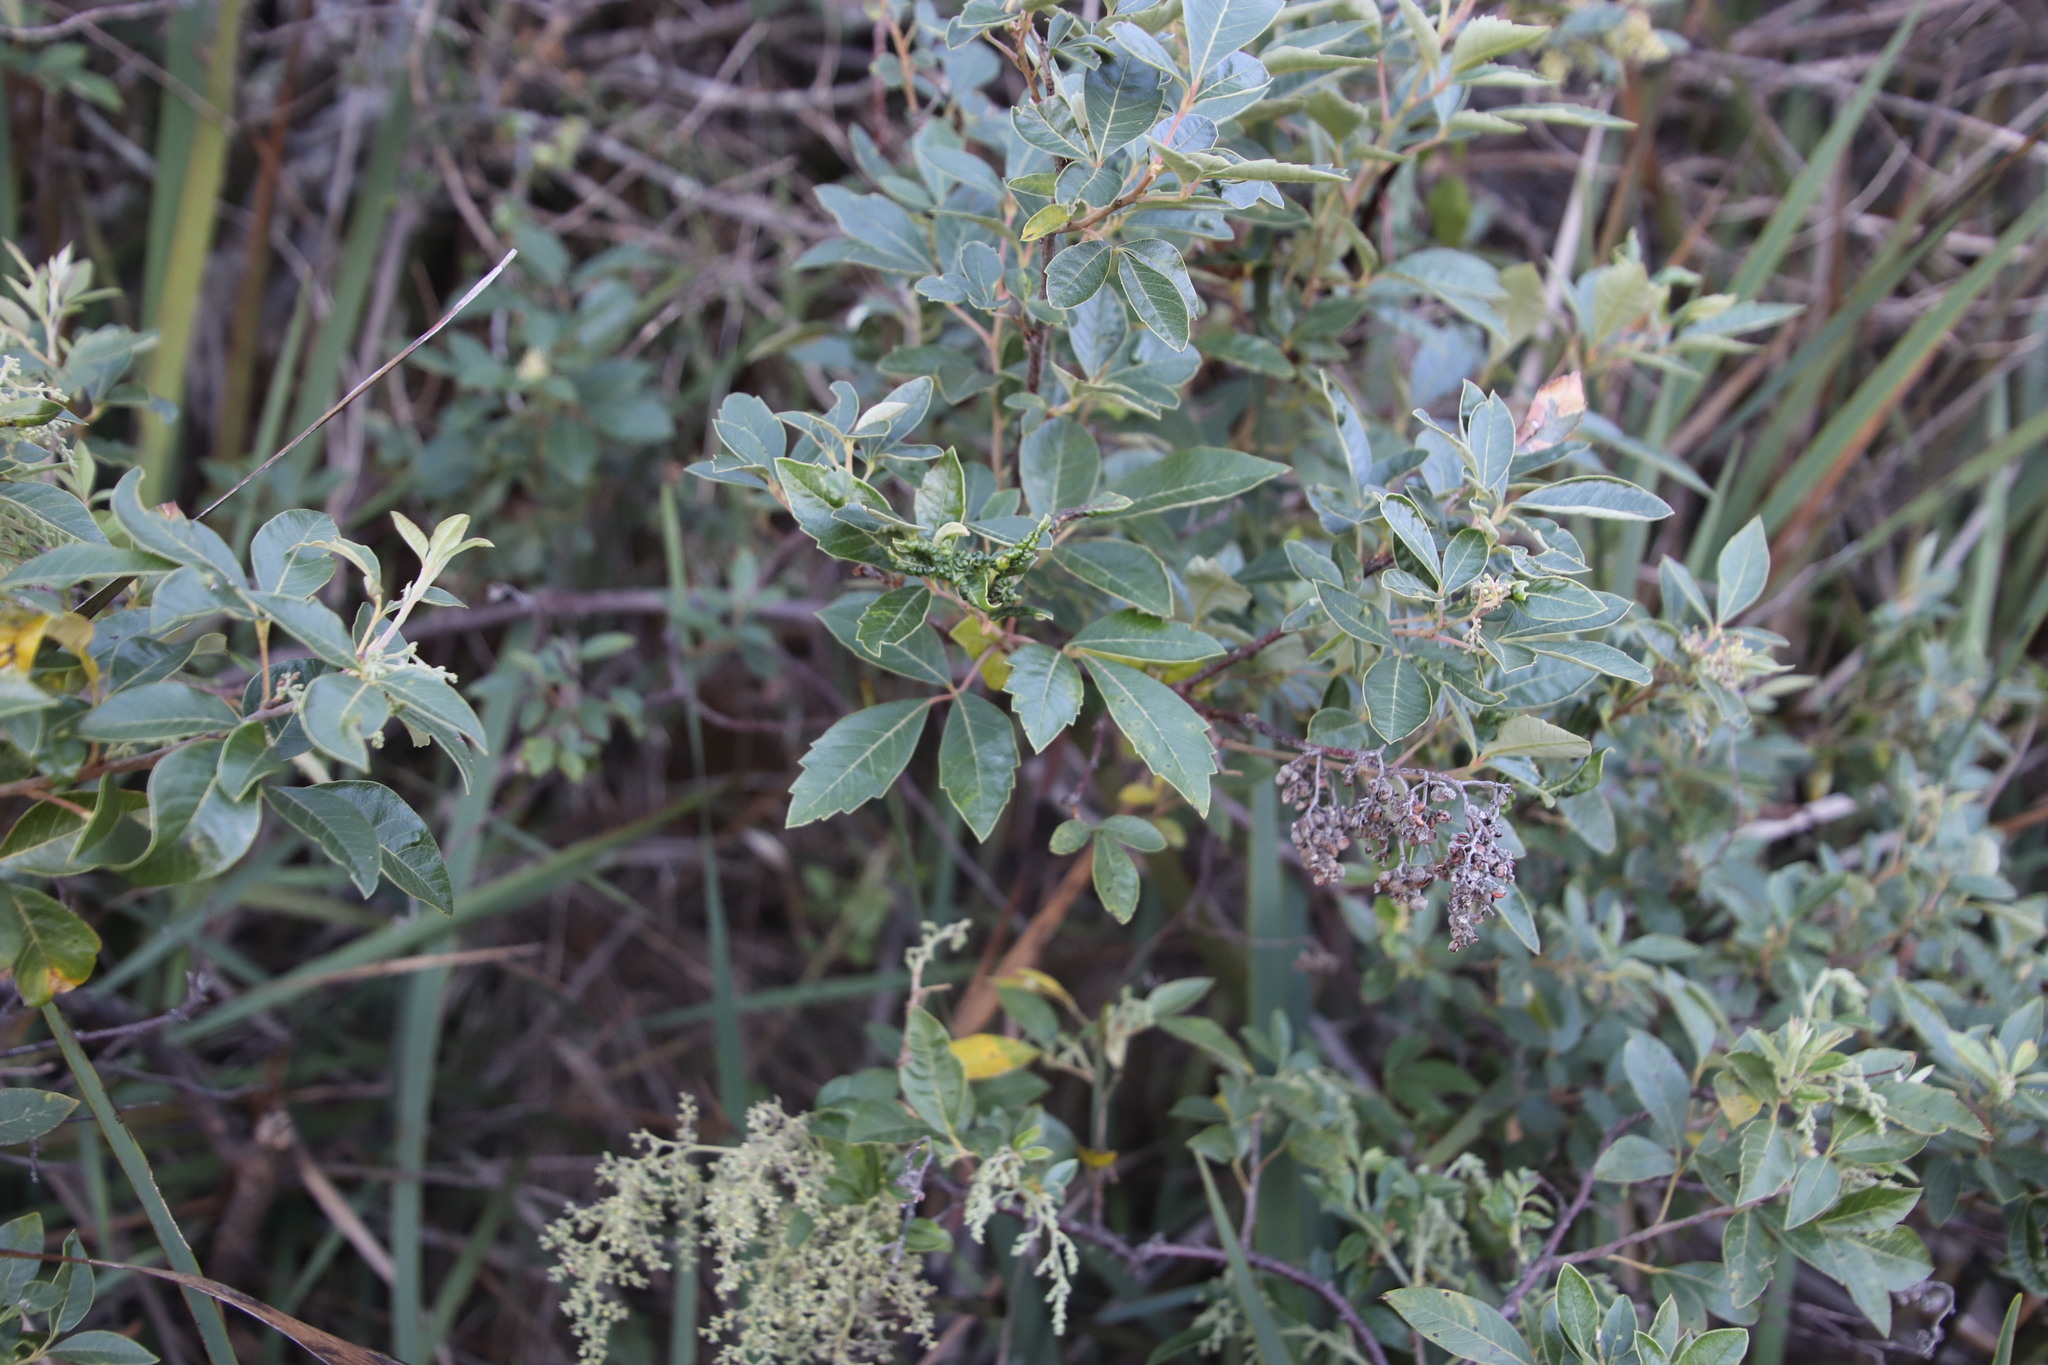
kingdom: Plantae
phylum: Tracheophyta
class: Magnoliopsida
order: Sapindales
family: Anacardiaceae
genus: Searsia
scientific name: Searsia tomentosa
